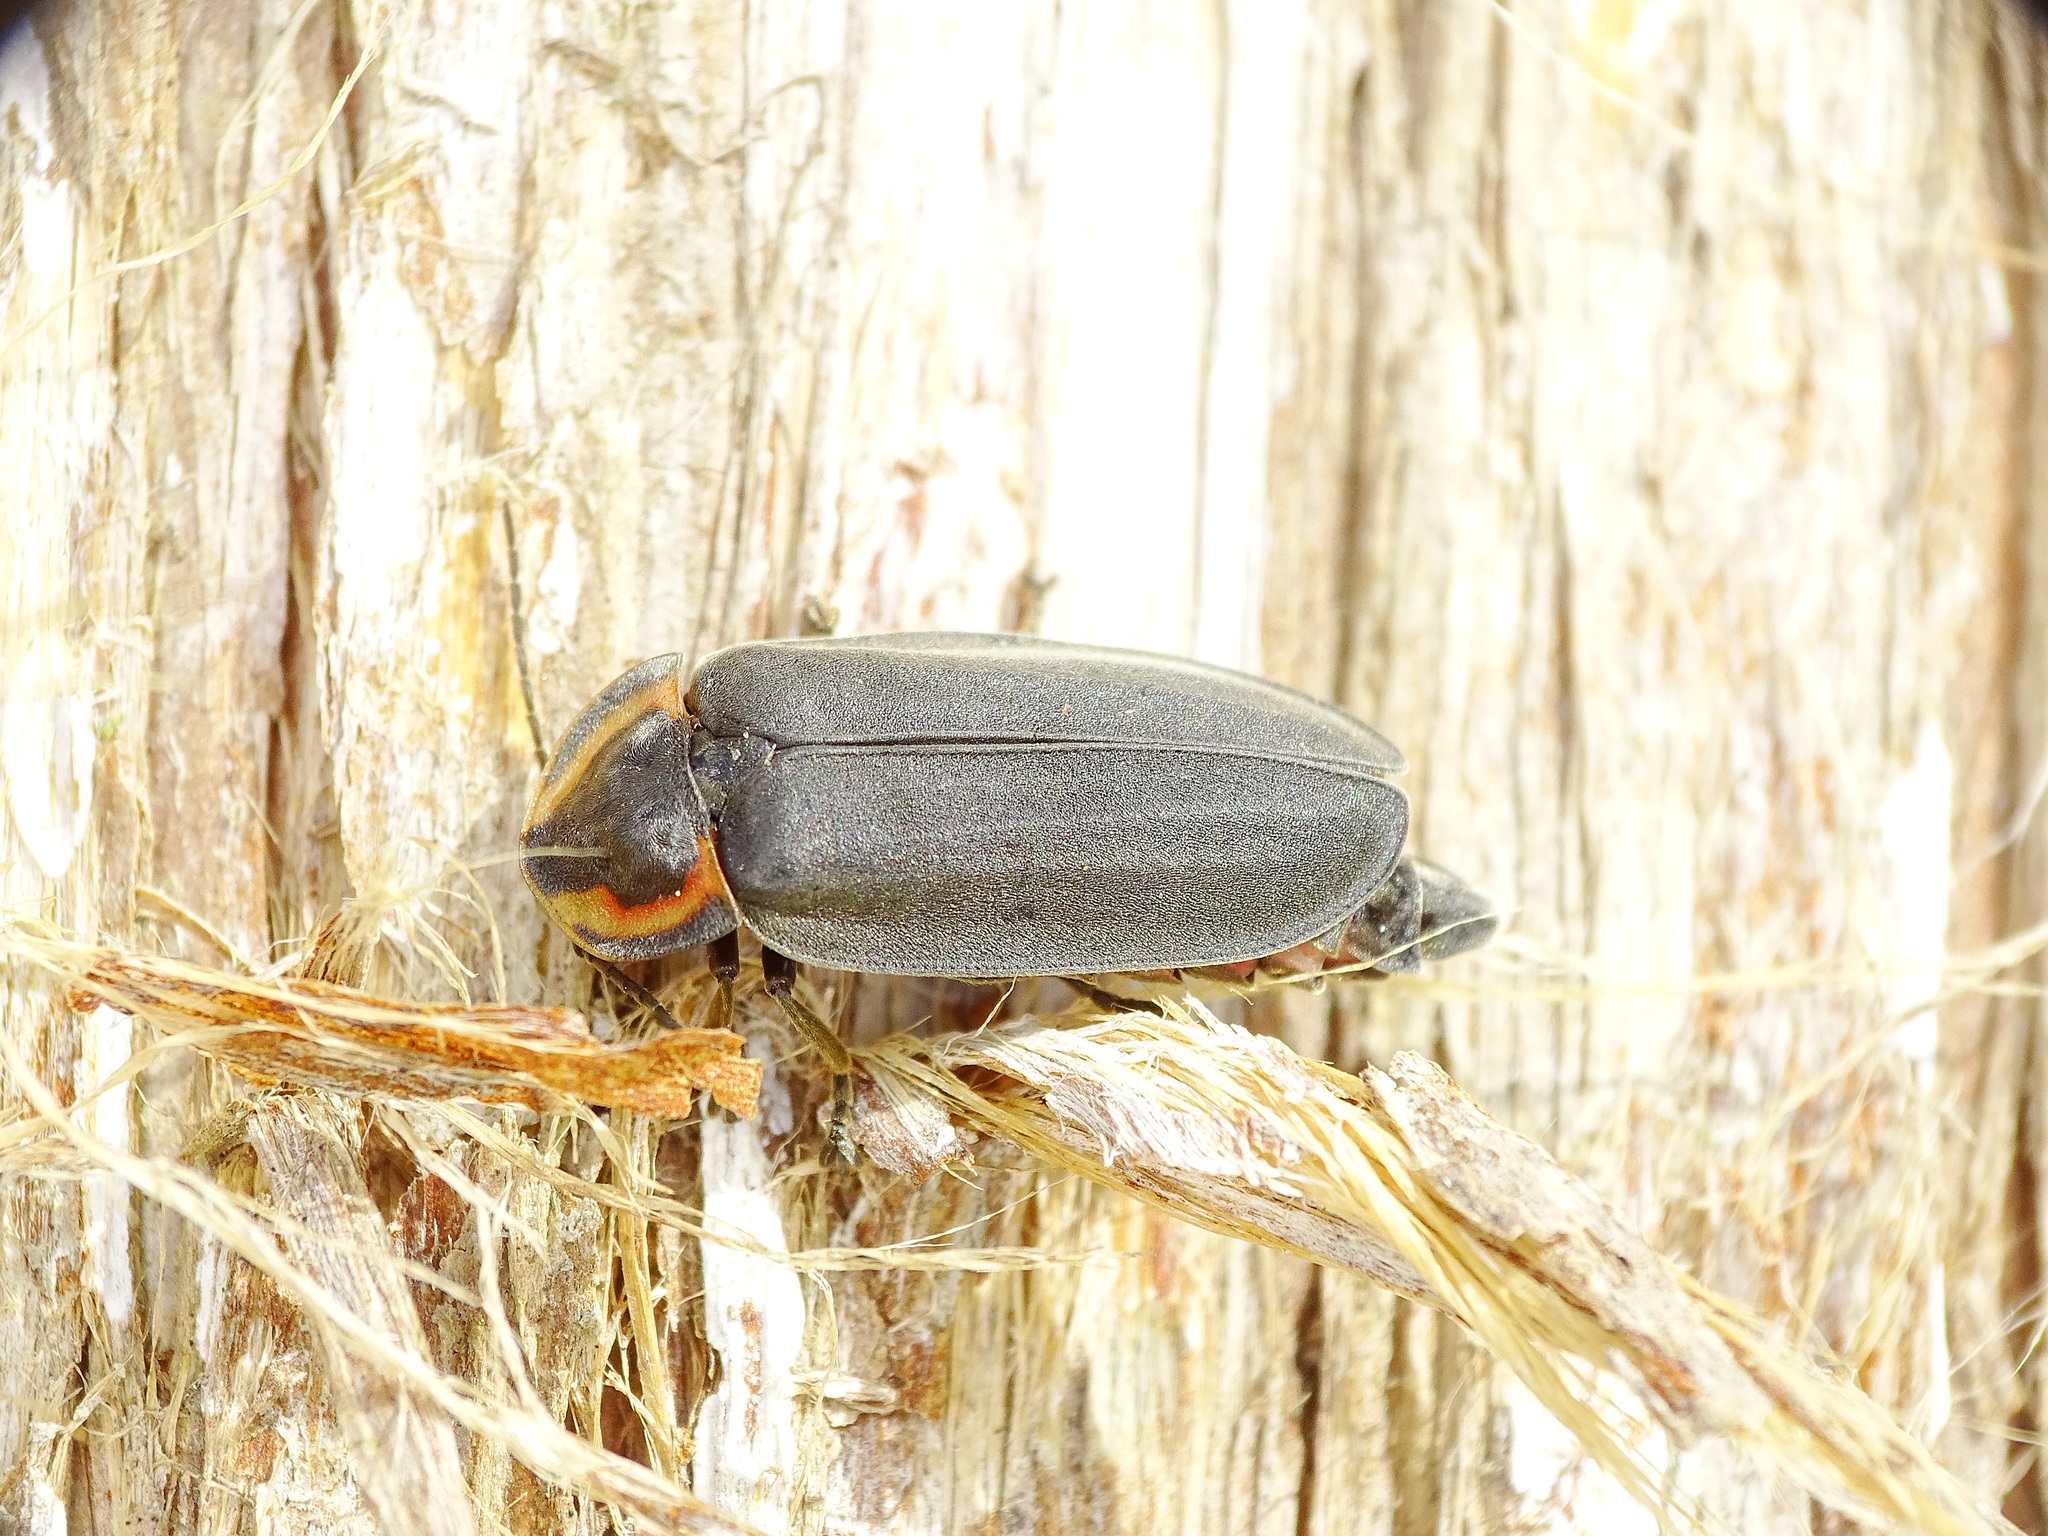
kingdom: Animalia
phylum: Arthropoda
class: Insecta
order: Coleoptera
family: Lampyridae
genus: Photinus
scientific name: Photinus corrusca
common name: Winter firefly
